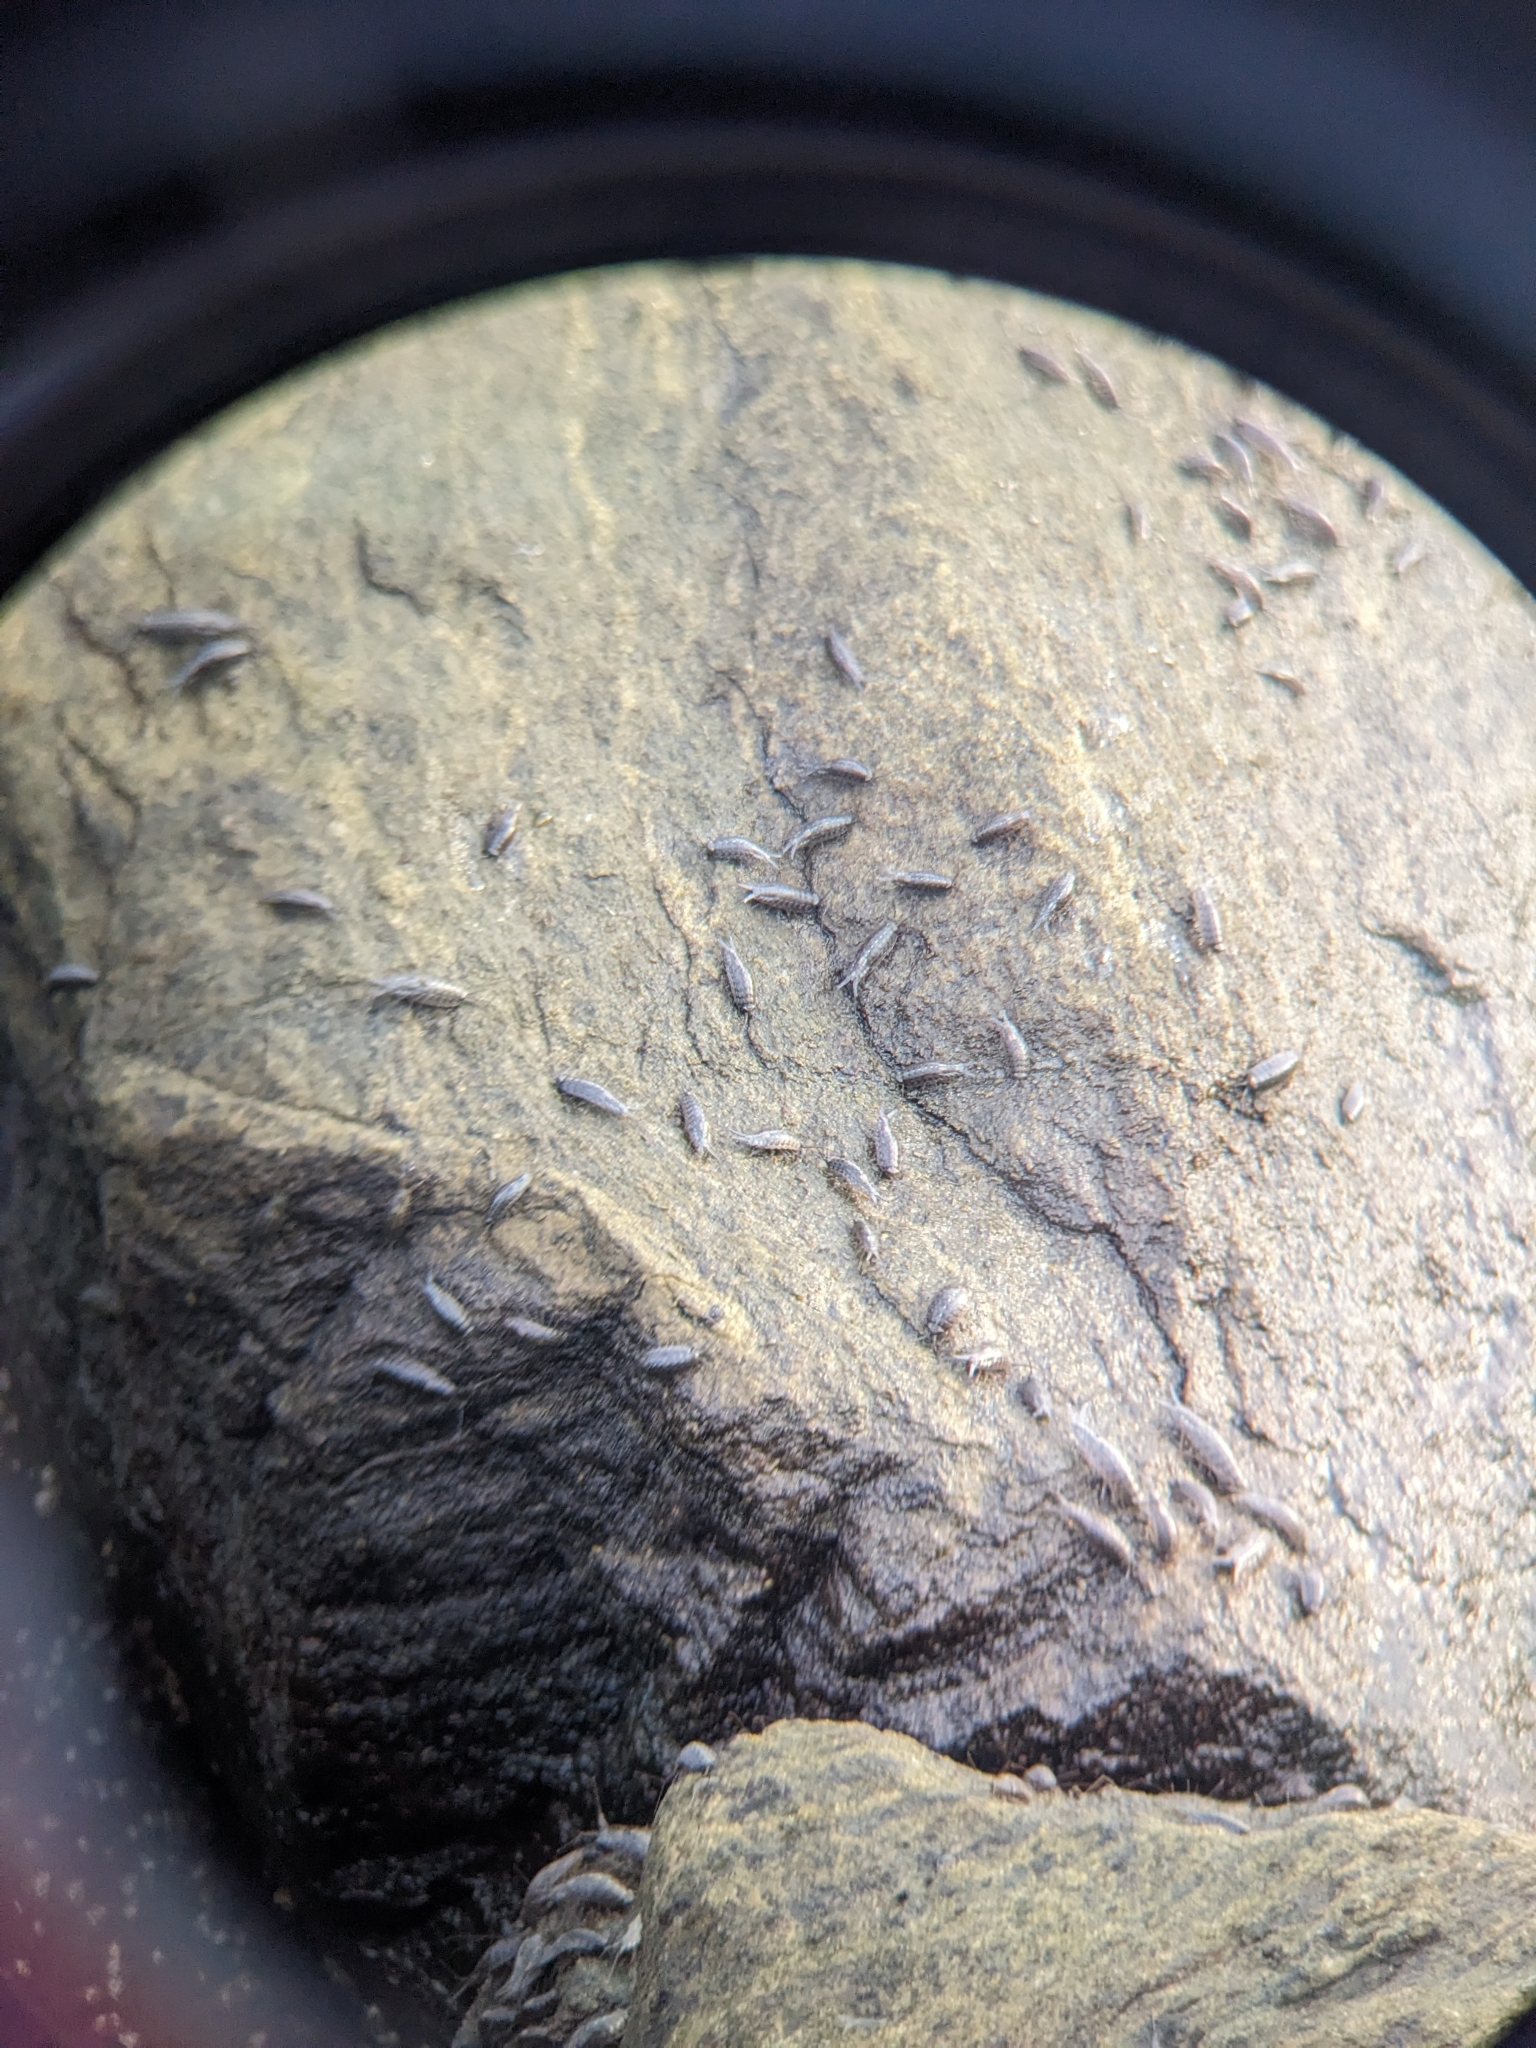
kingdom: Animalia
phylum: Arthropoda
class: Malacostraca
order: Isopoda
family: Ligiidae
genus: Ligia
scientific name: Ligia exotica
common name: Wharf roach
